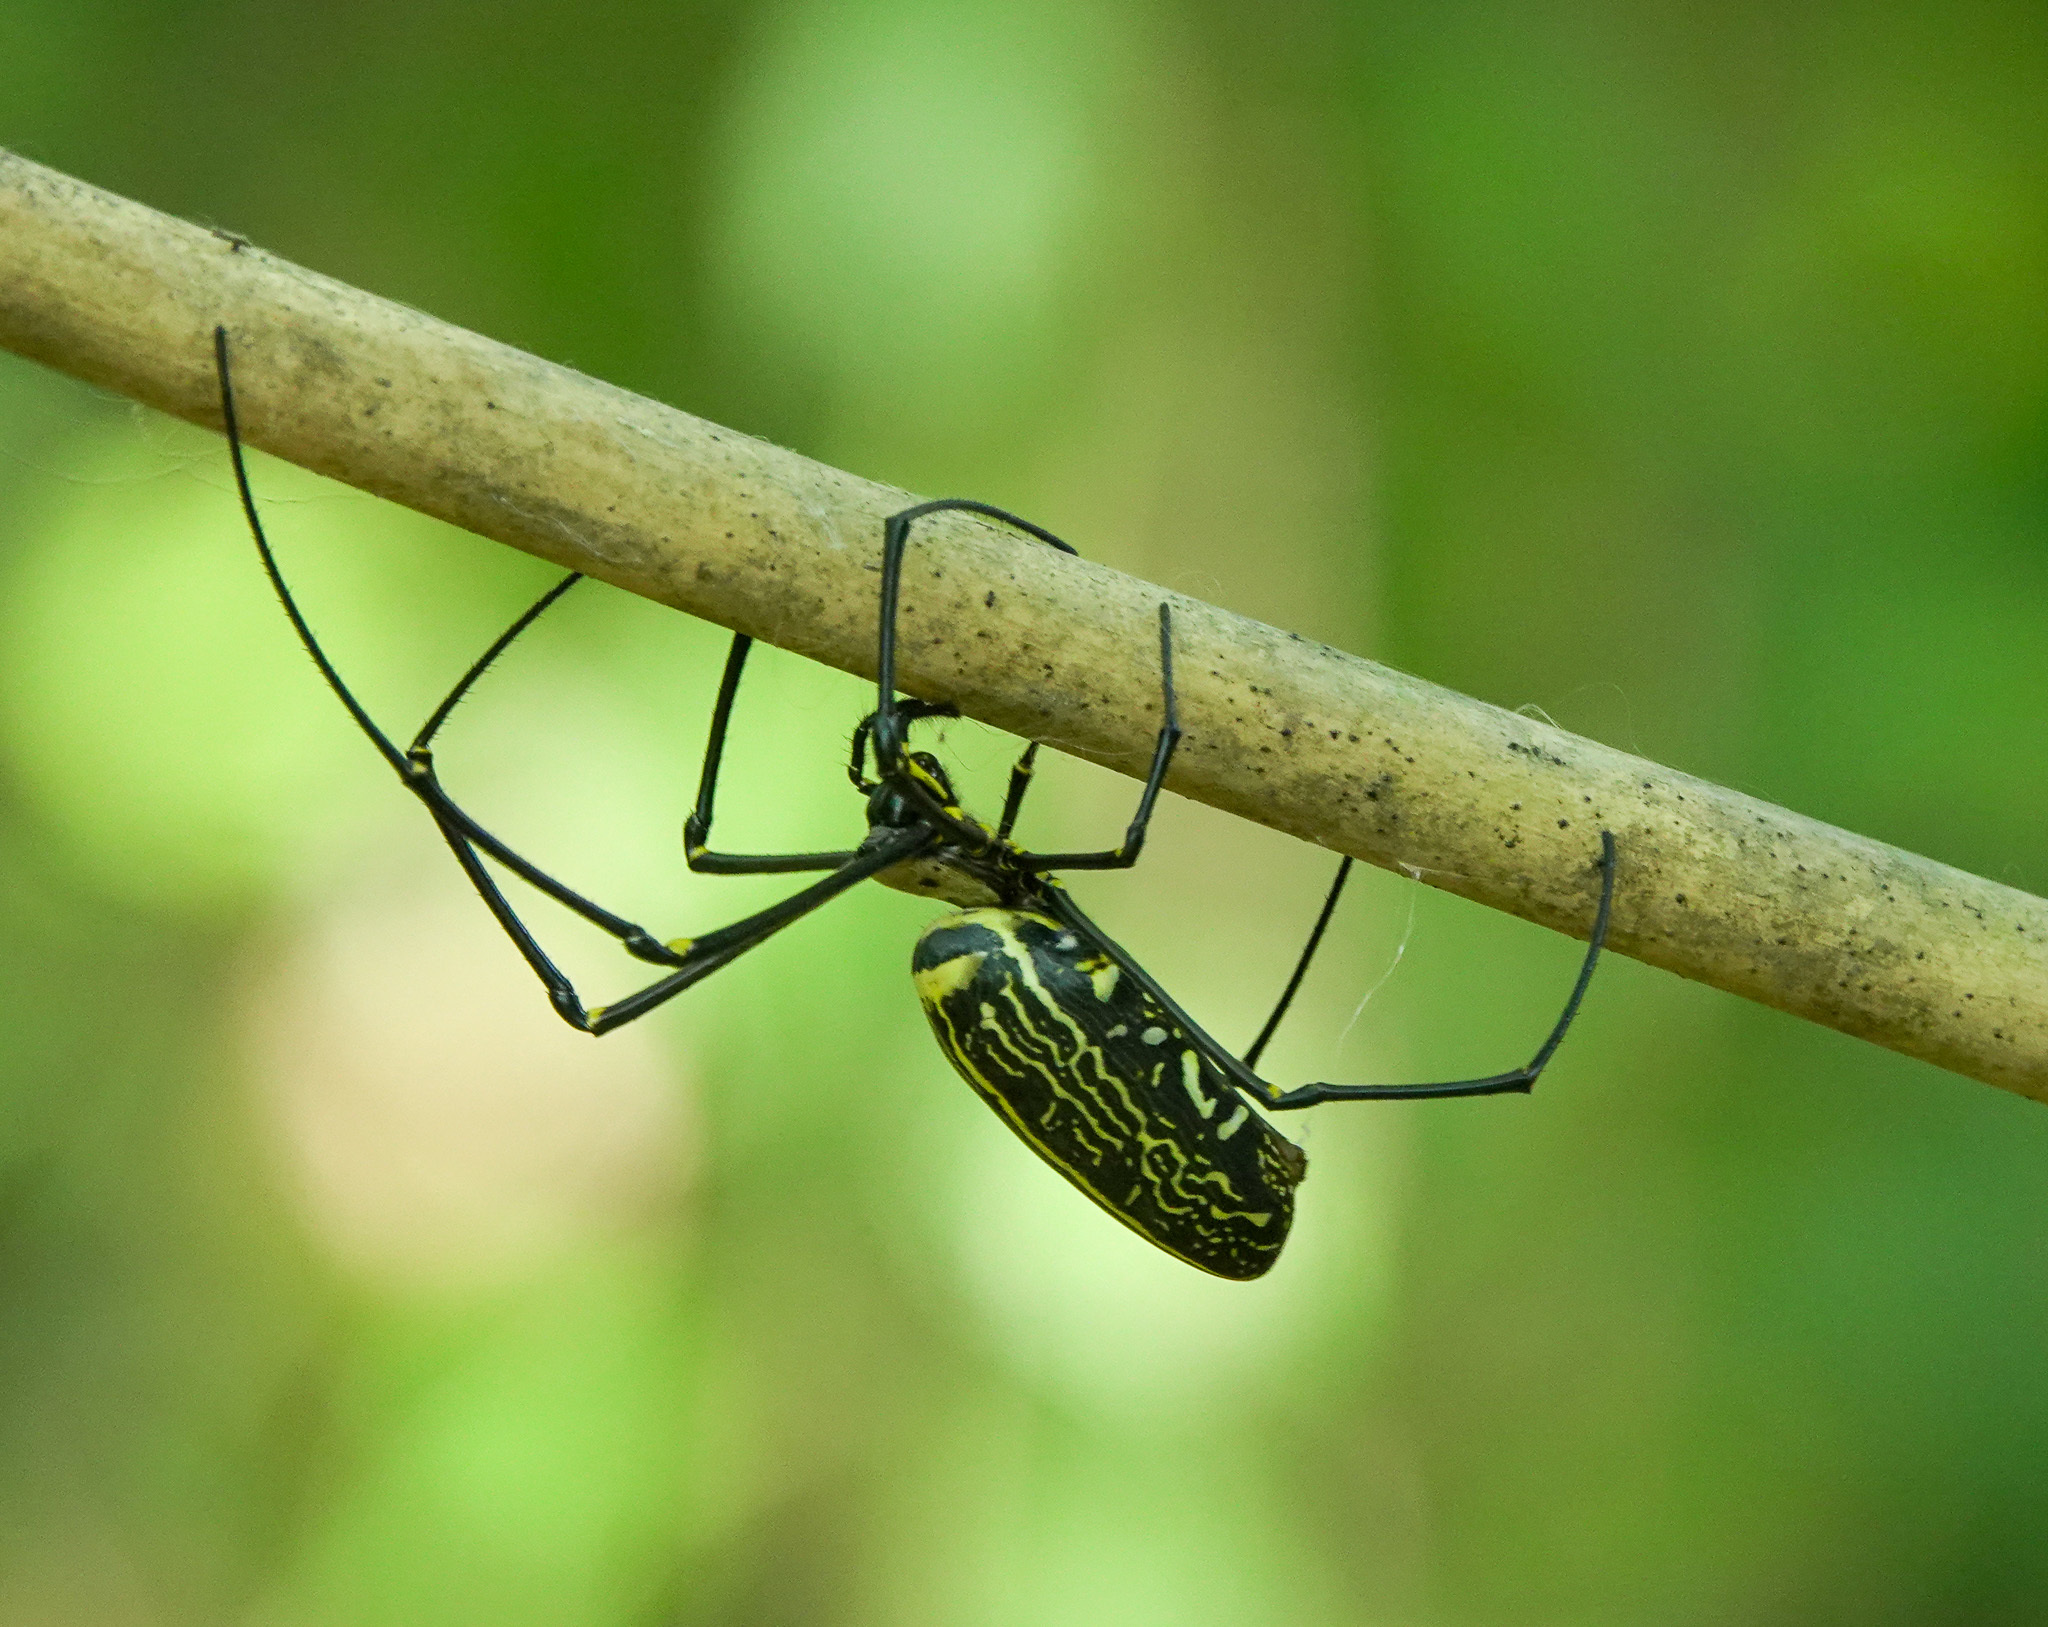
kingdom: Animalia
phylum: Arthropoda
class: Arachnida
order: Araneae
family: Araneidae
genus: Nephila
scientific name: Nephila pilipes
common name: Giant golden orb weaver
